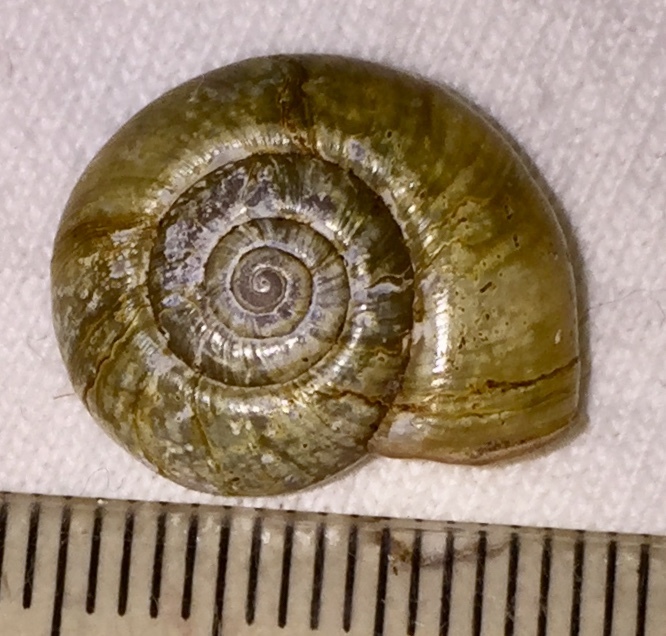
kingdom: Animalia
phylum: Mollusca
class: Gastropoda
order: Stylommatophora
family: Haplotrematidae
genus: Haplotrema
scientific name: Haplotrema concavum
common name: Gray-foot lancetooth
